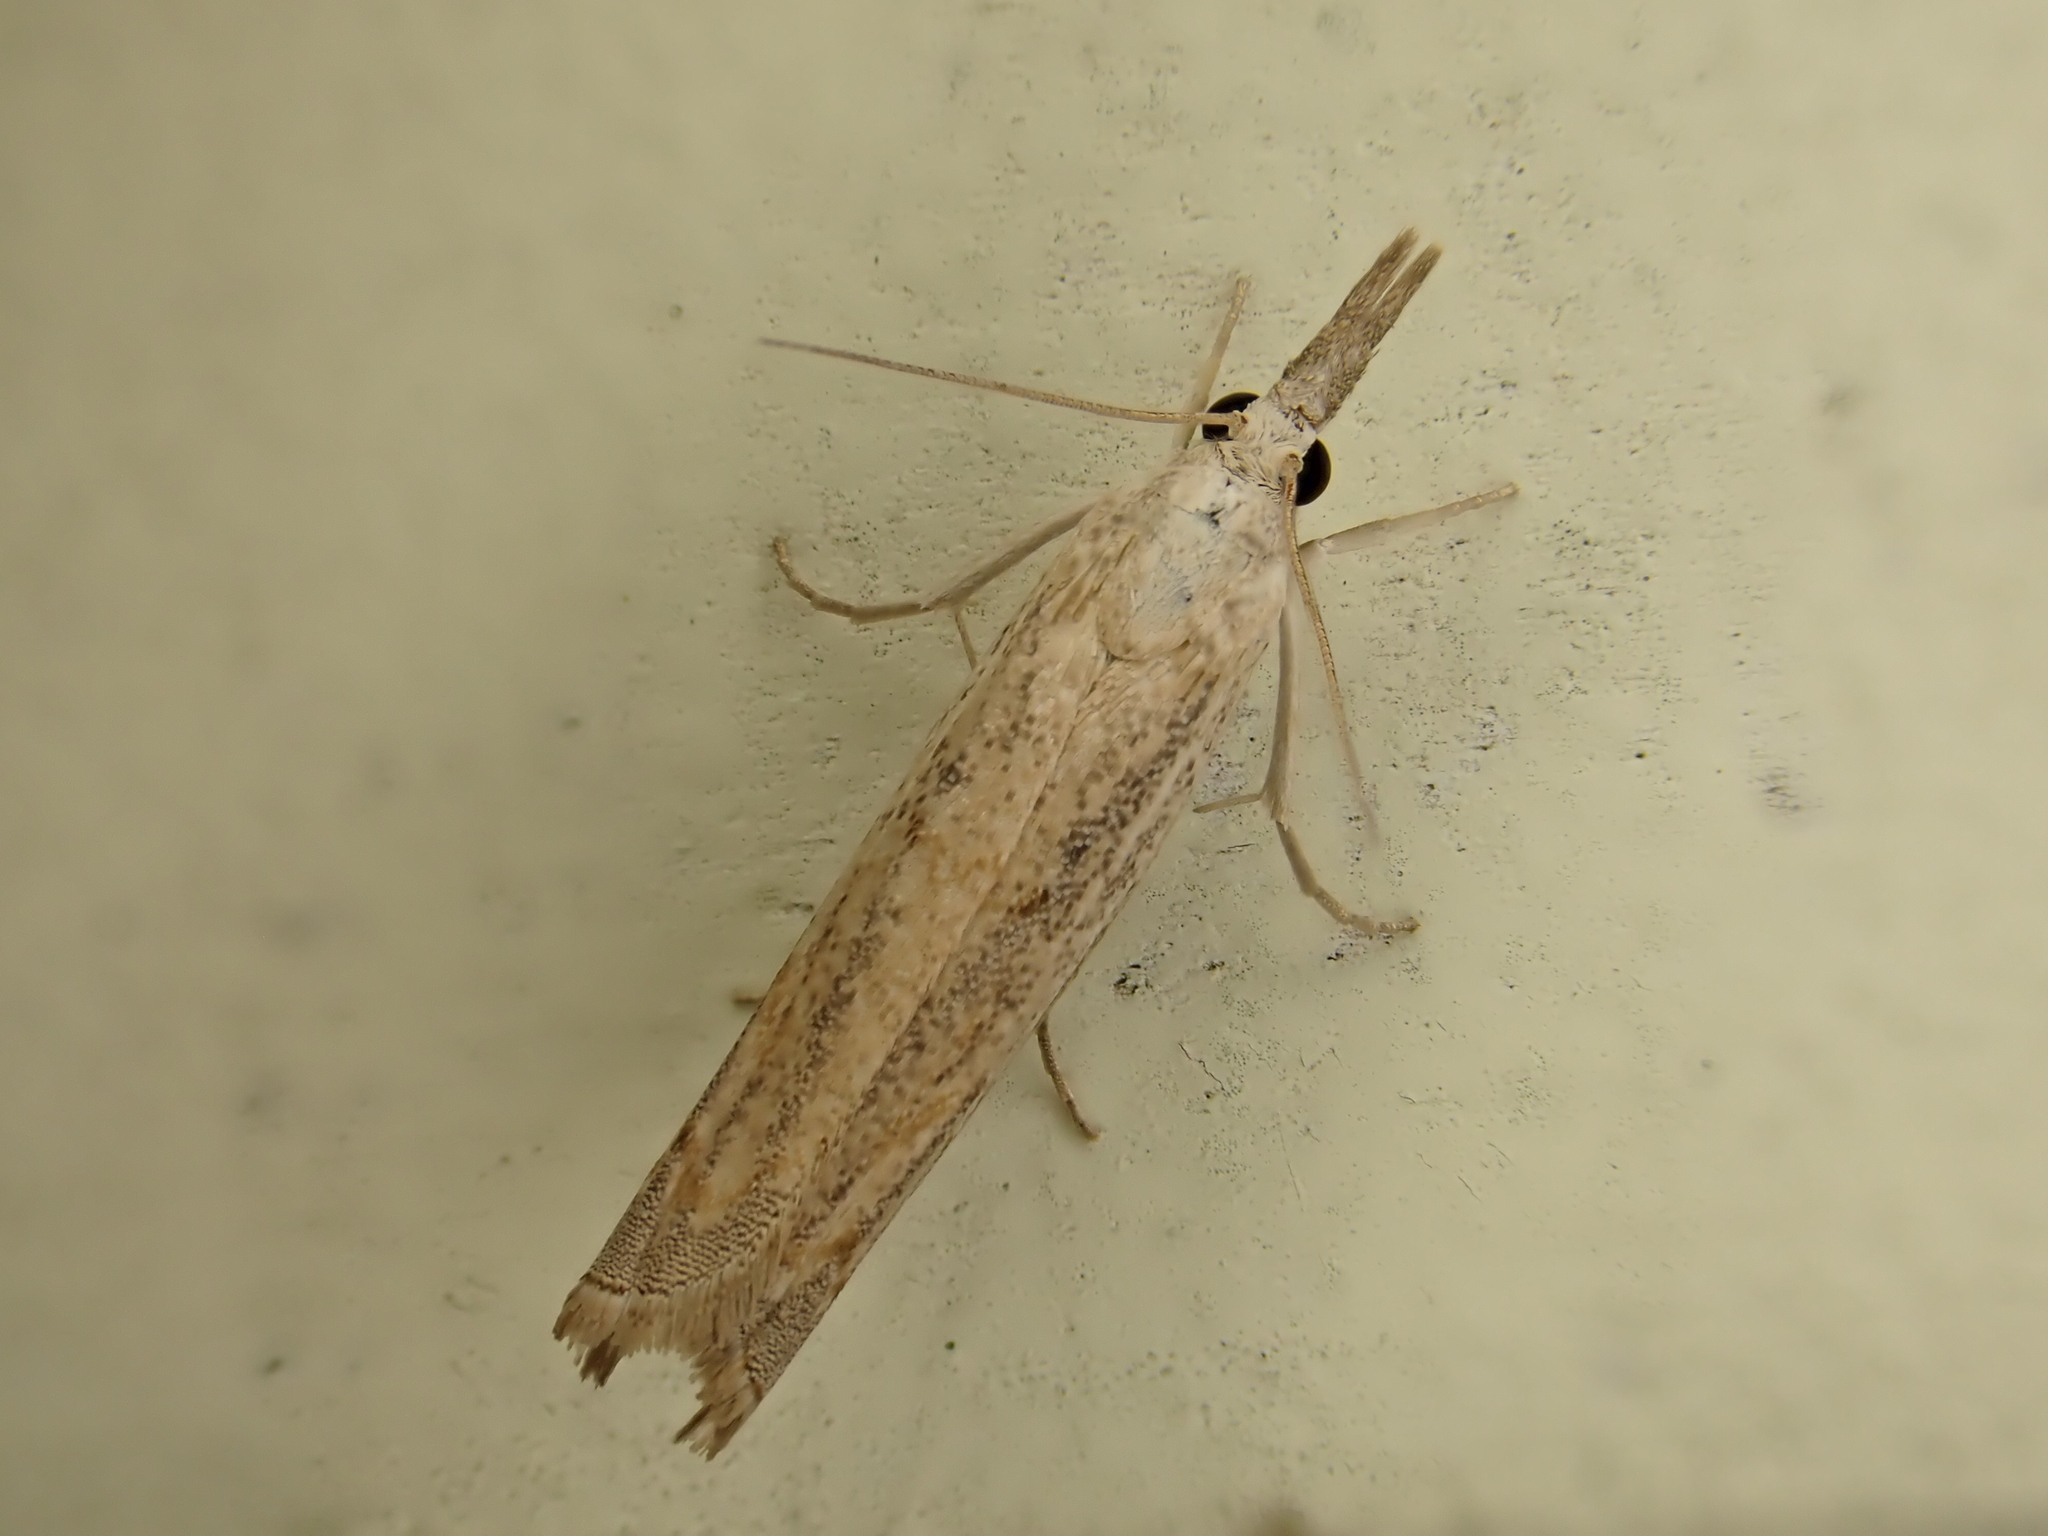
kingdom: Animalia
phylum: Arthropoda
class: Insecta
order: Lepidoptera
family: Crambidae
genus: Culladia
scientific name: Culladia cuneiferellus
